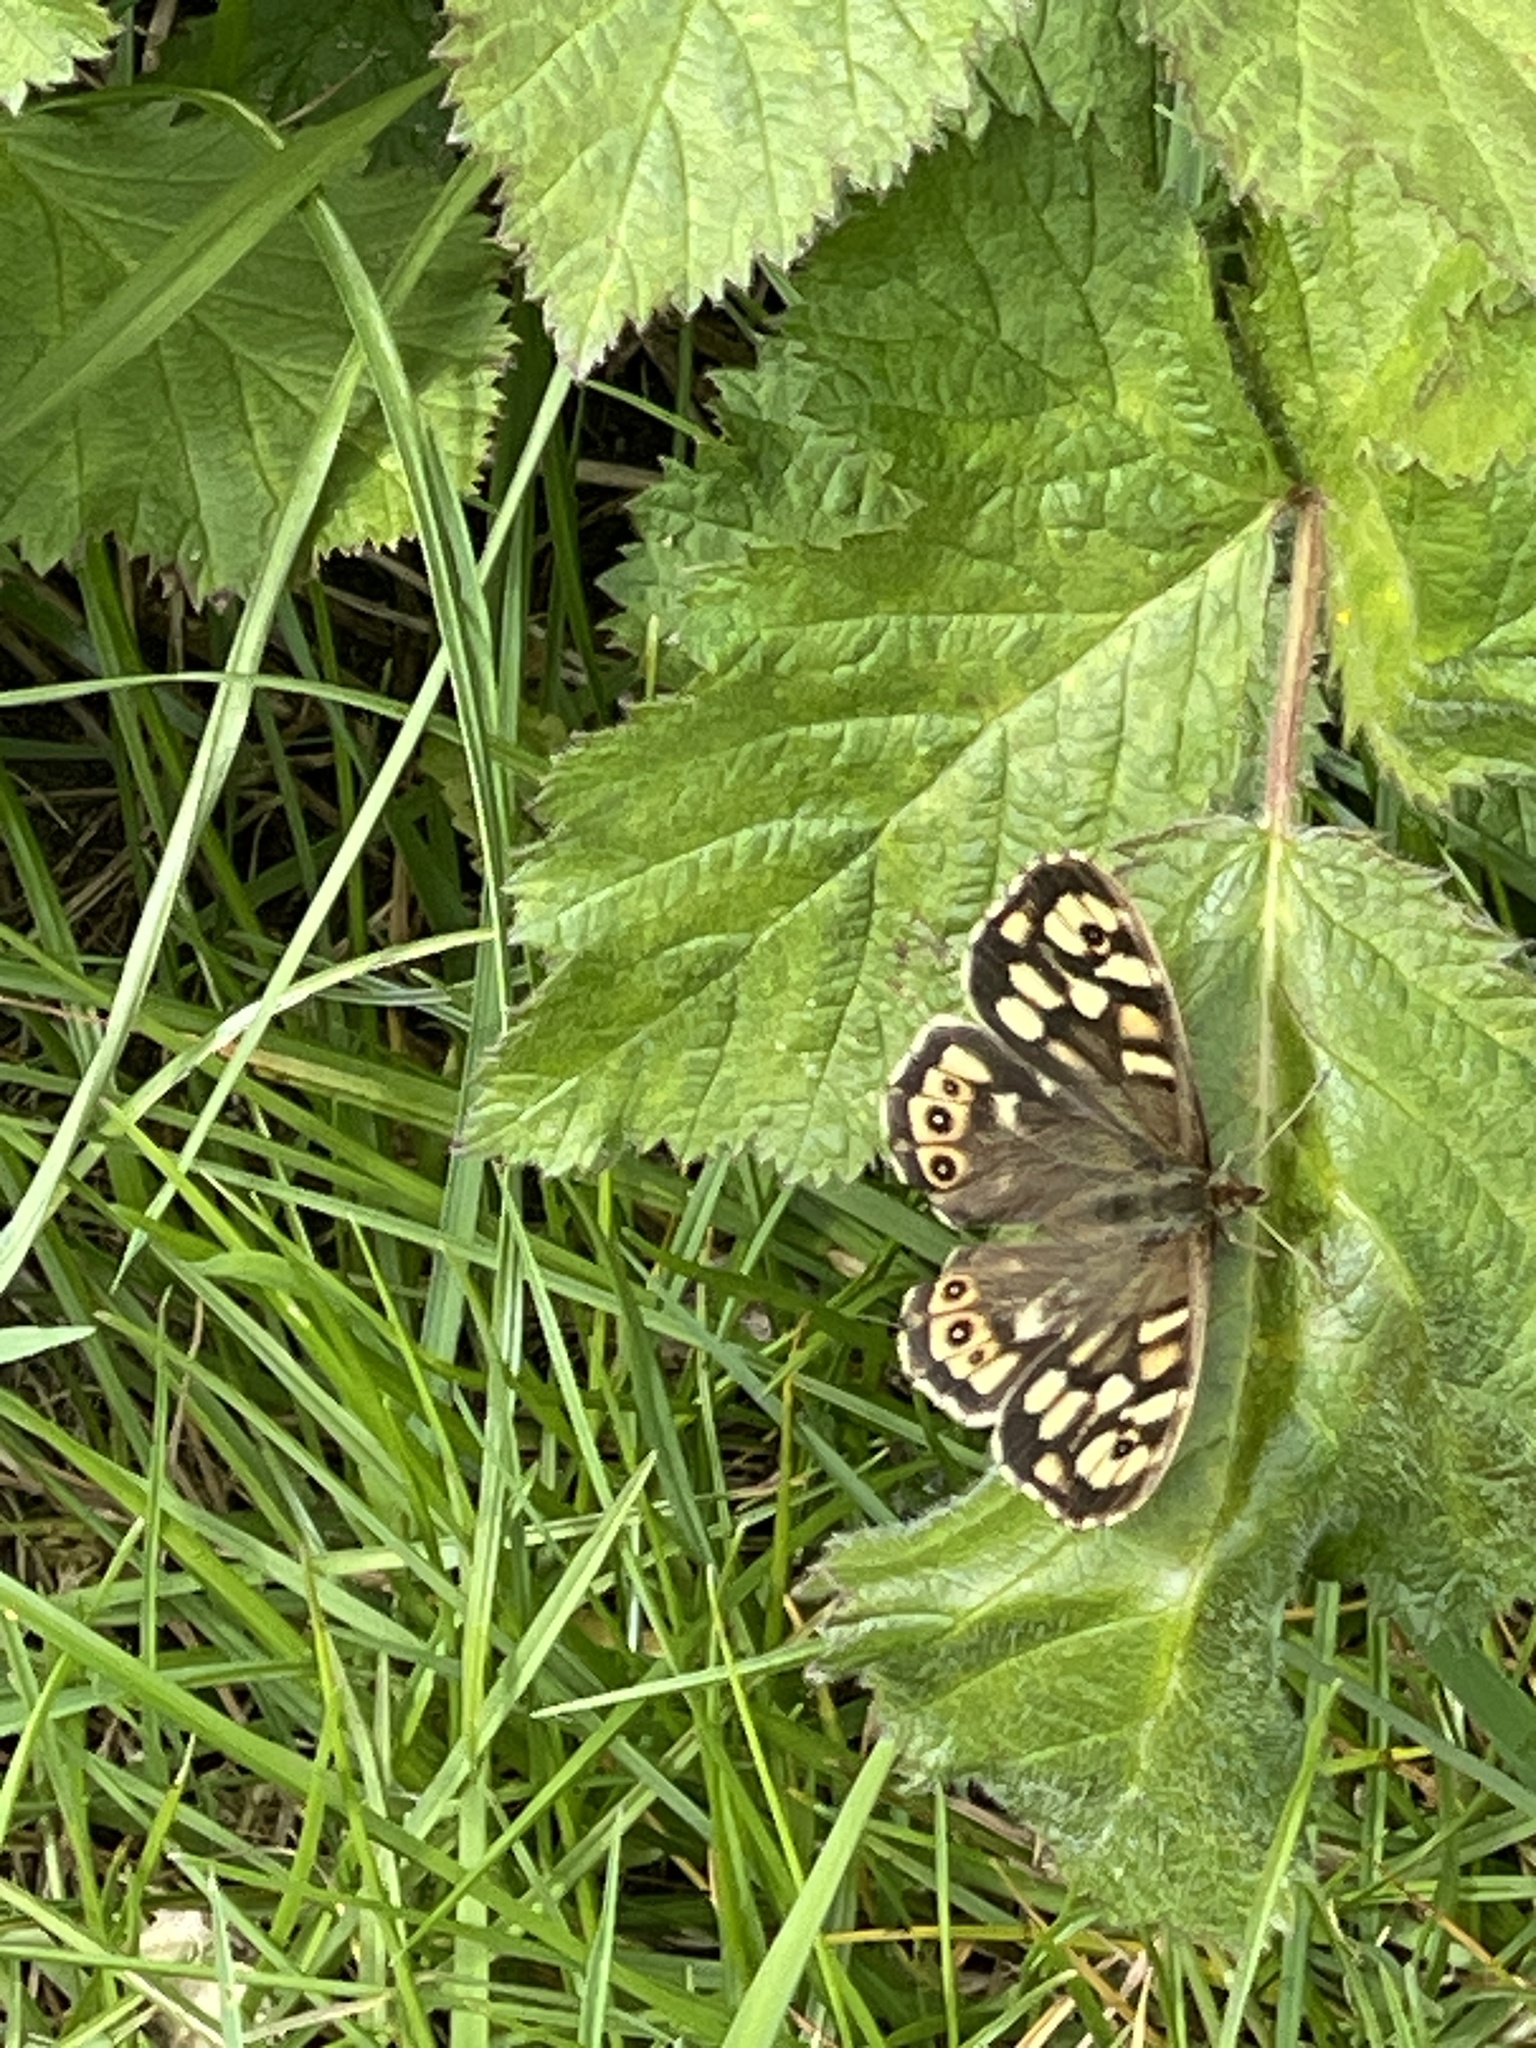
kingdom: Animalia
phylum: Arthropoda
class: Insecta
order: Lepidoptera
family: Nymphalidae
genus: Pararge
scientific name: Pararge aegeria
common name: Speckled wood
